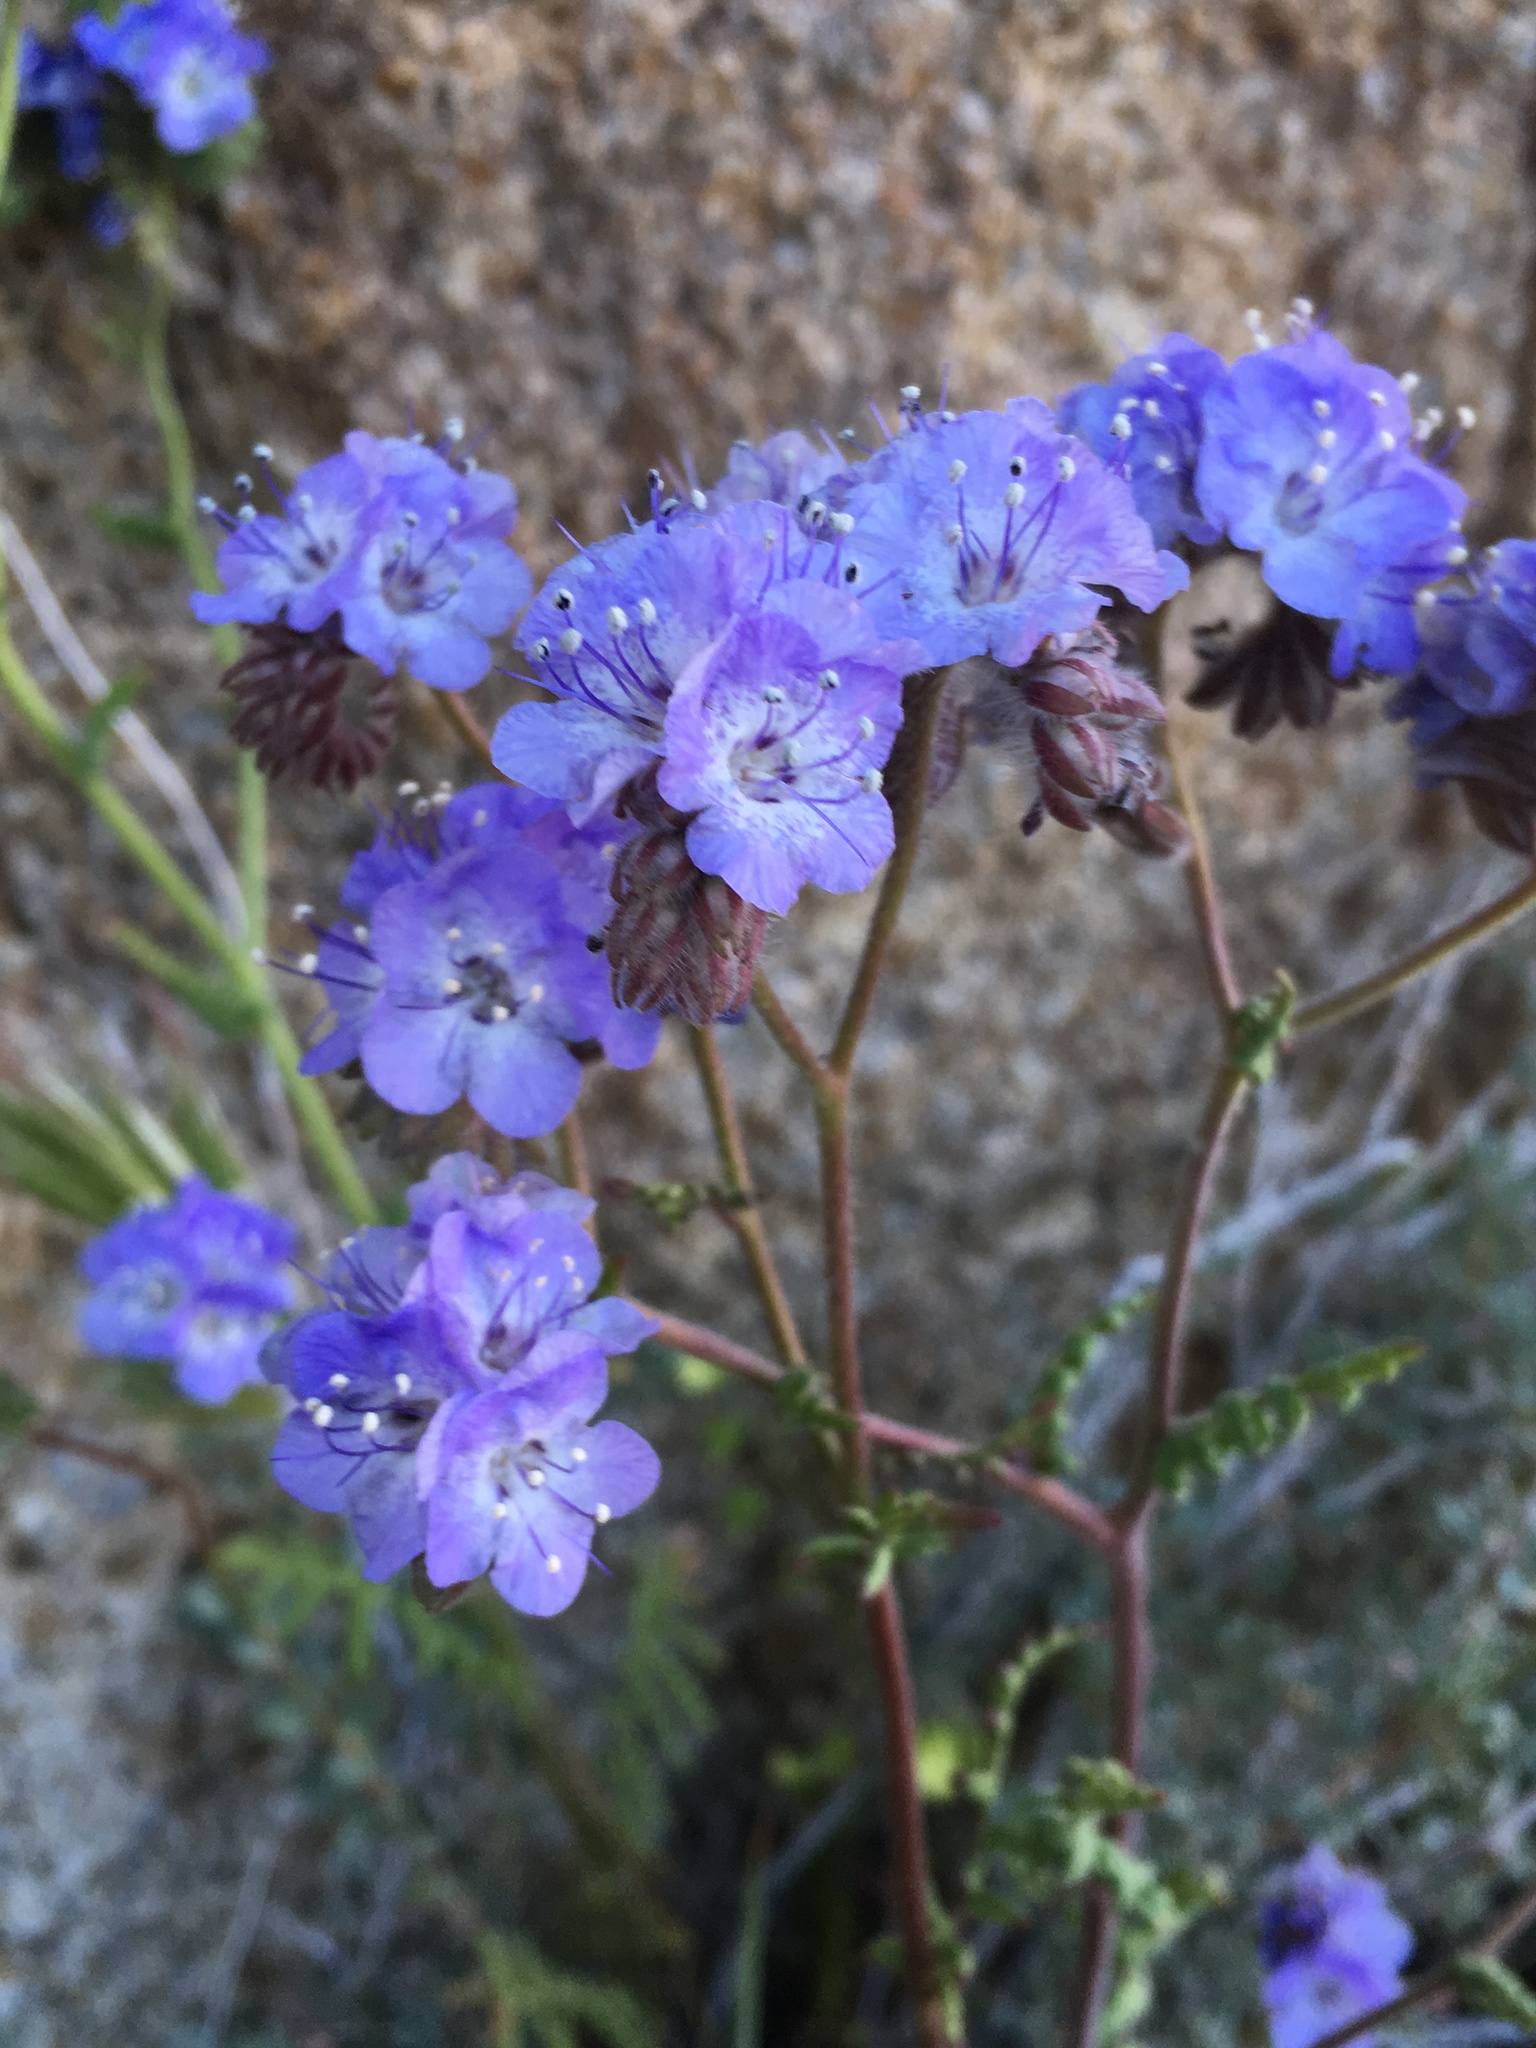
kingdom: Plantae
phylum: Tracheophyta
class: Magnoliopsida
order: Boraginales
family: Hydrophyllaceae
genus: Phacelia
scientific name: Phacelia distans
